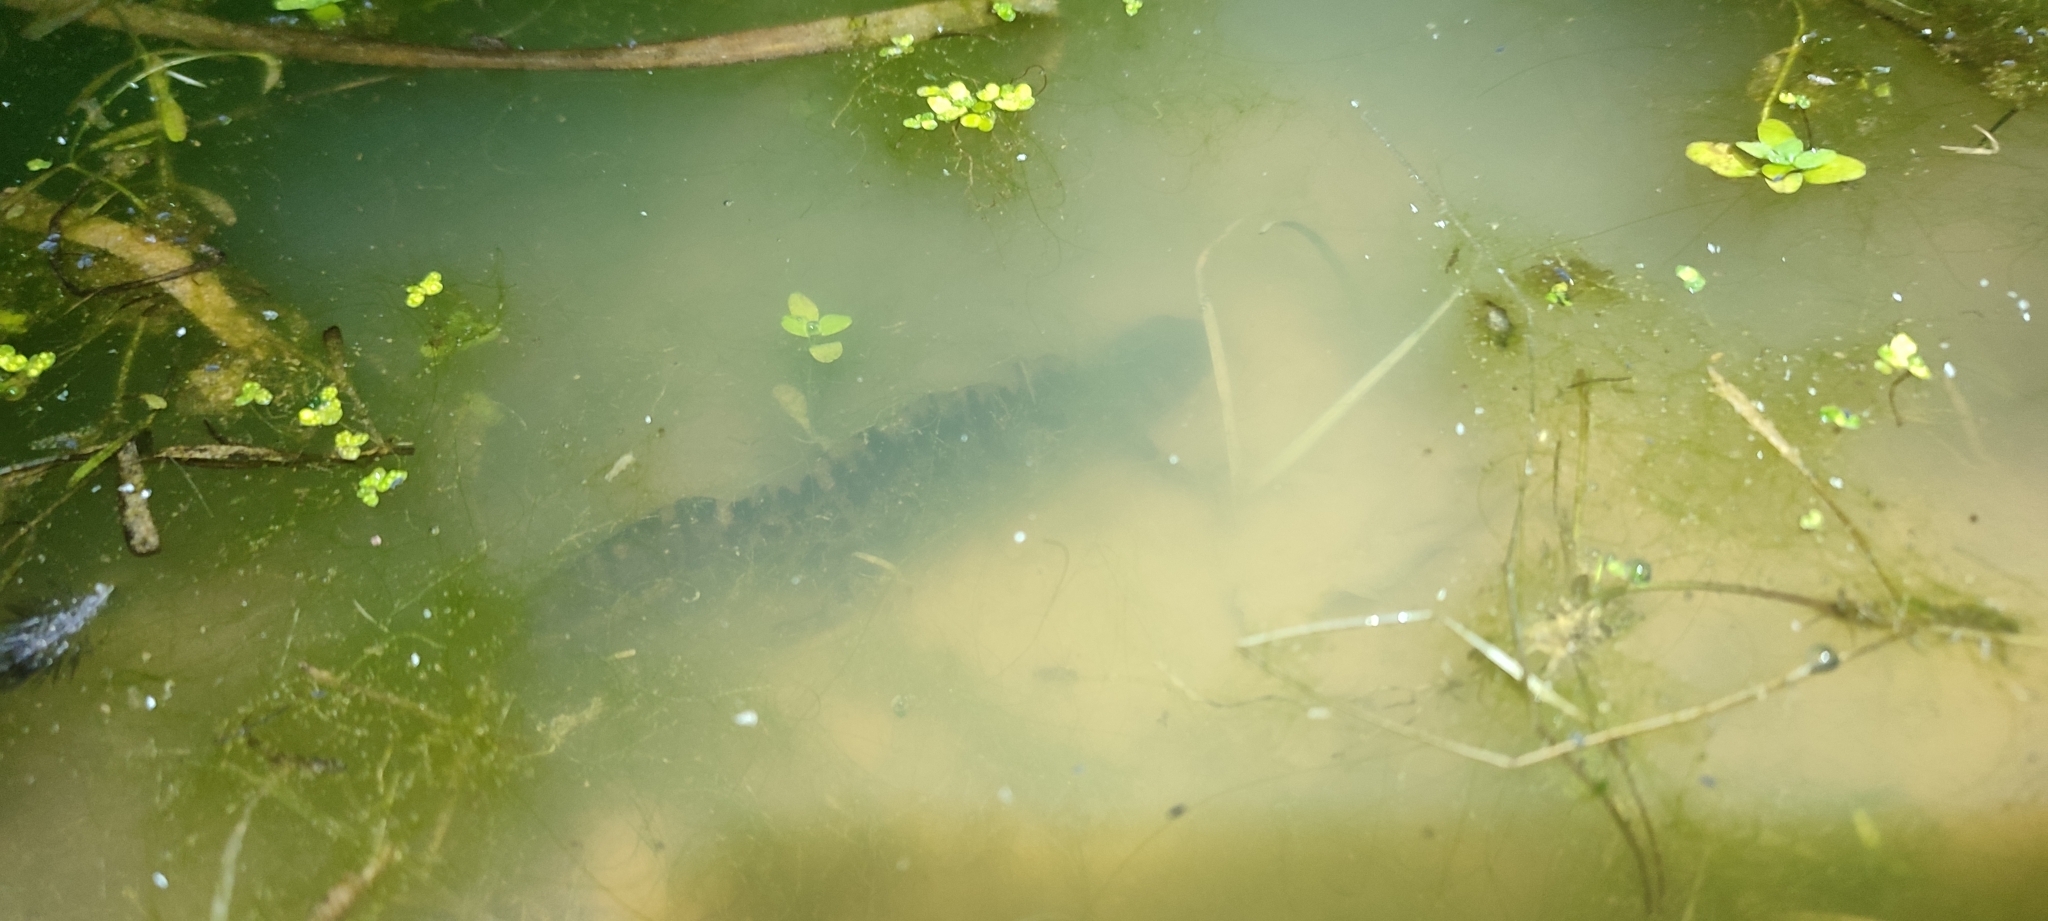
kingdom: Animalia
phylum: Chordata
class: Amphibia
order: Caudata
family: Salamandridae
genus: Triturus
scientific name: Triturus marmoratus
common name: Marbled newt
